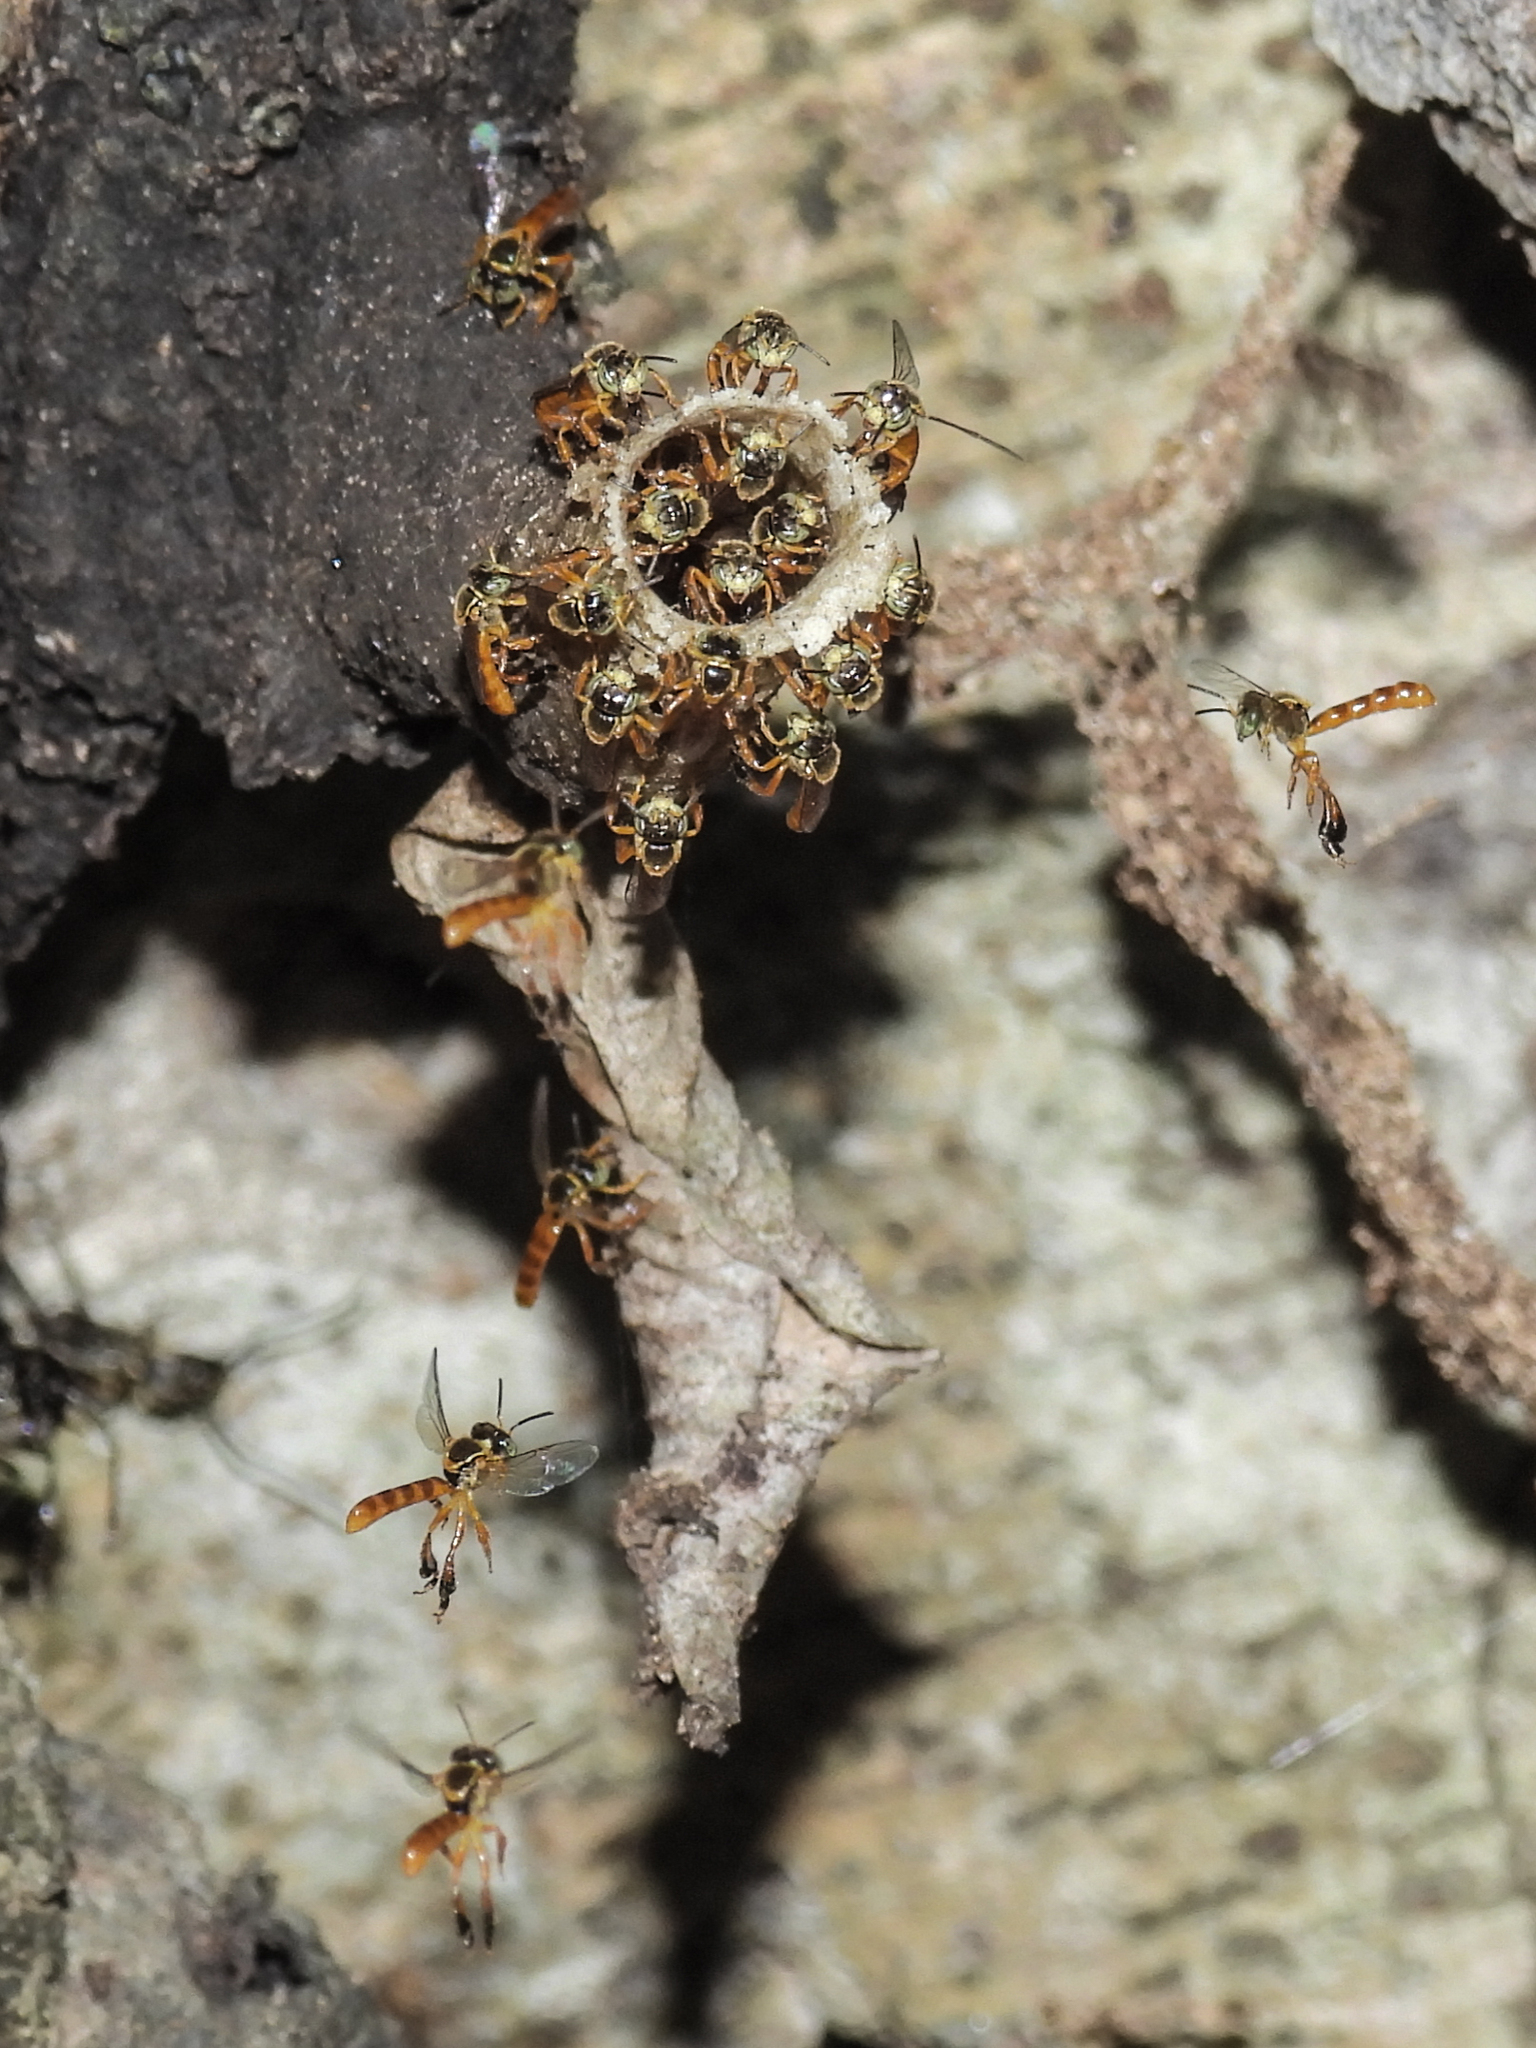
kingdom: Animalia
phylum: Arthropoda
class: Insecta
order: Hymenoptera
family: Apidae
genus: Tetragonisca
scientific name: Tetragonisca angustula
